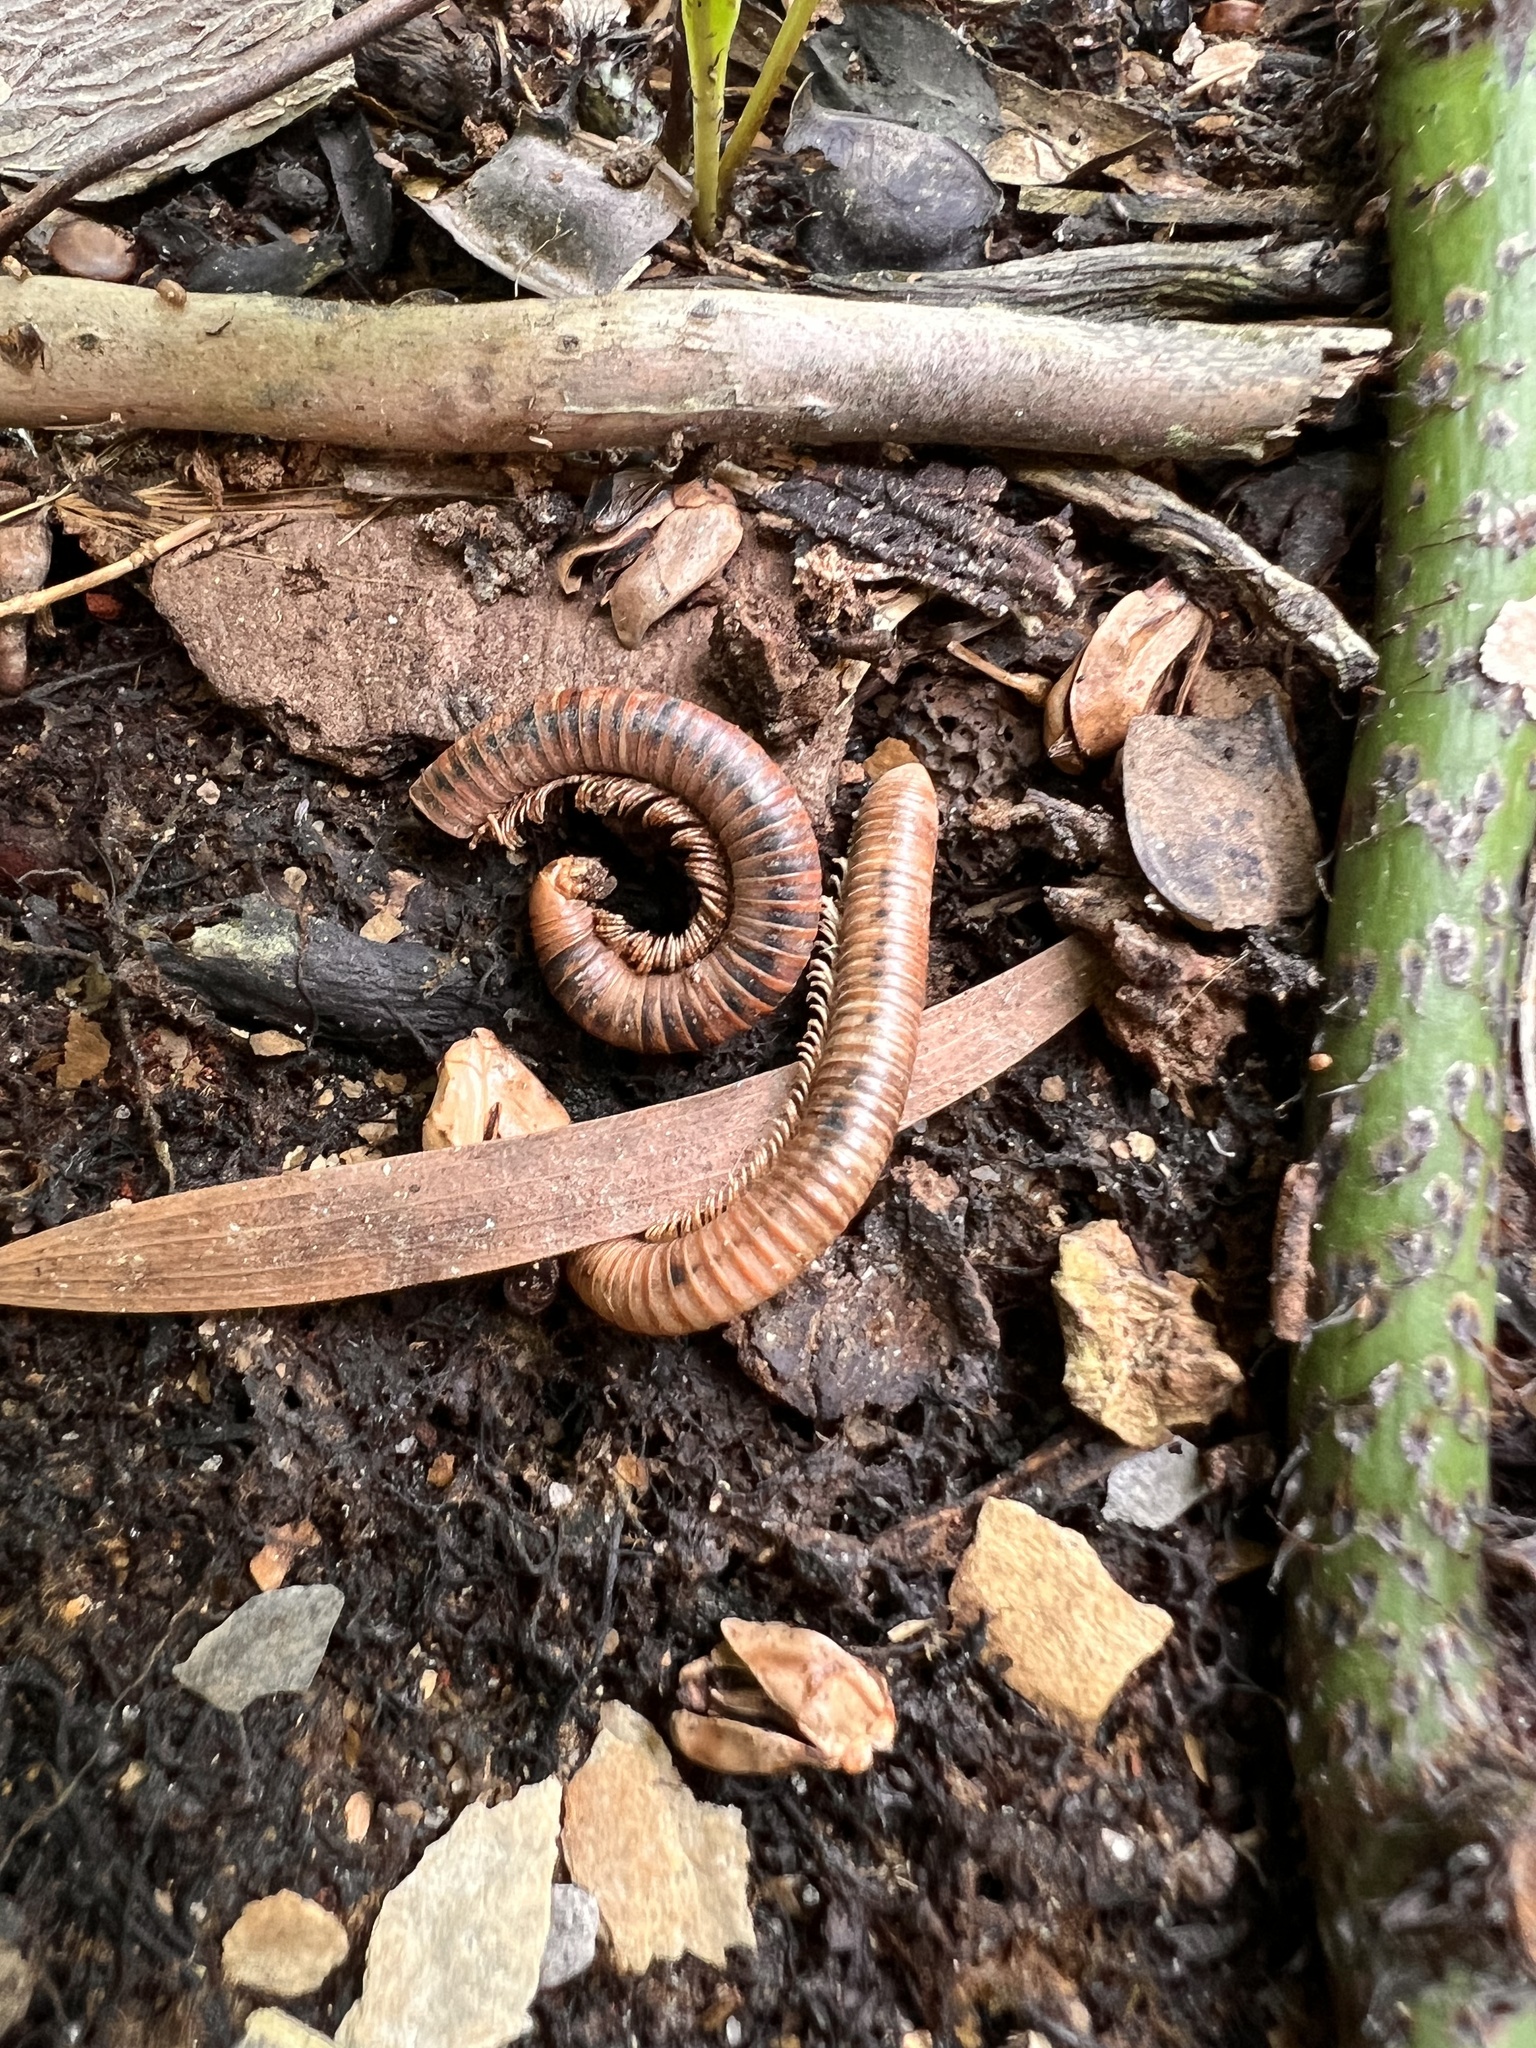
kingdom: Animalia
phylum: Arthropoda
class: Diplopoda
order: Spirobolida
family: Pachybolidae
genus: Trigoniulus
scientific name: Trigoniulus corallinus
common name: Millipede
